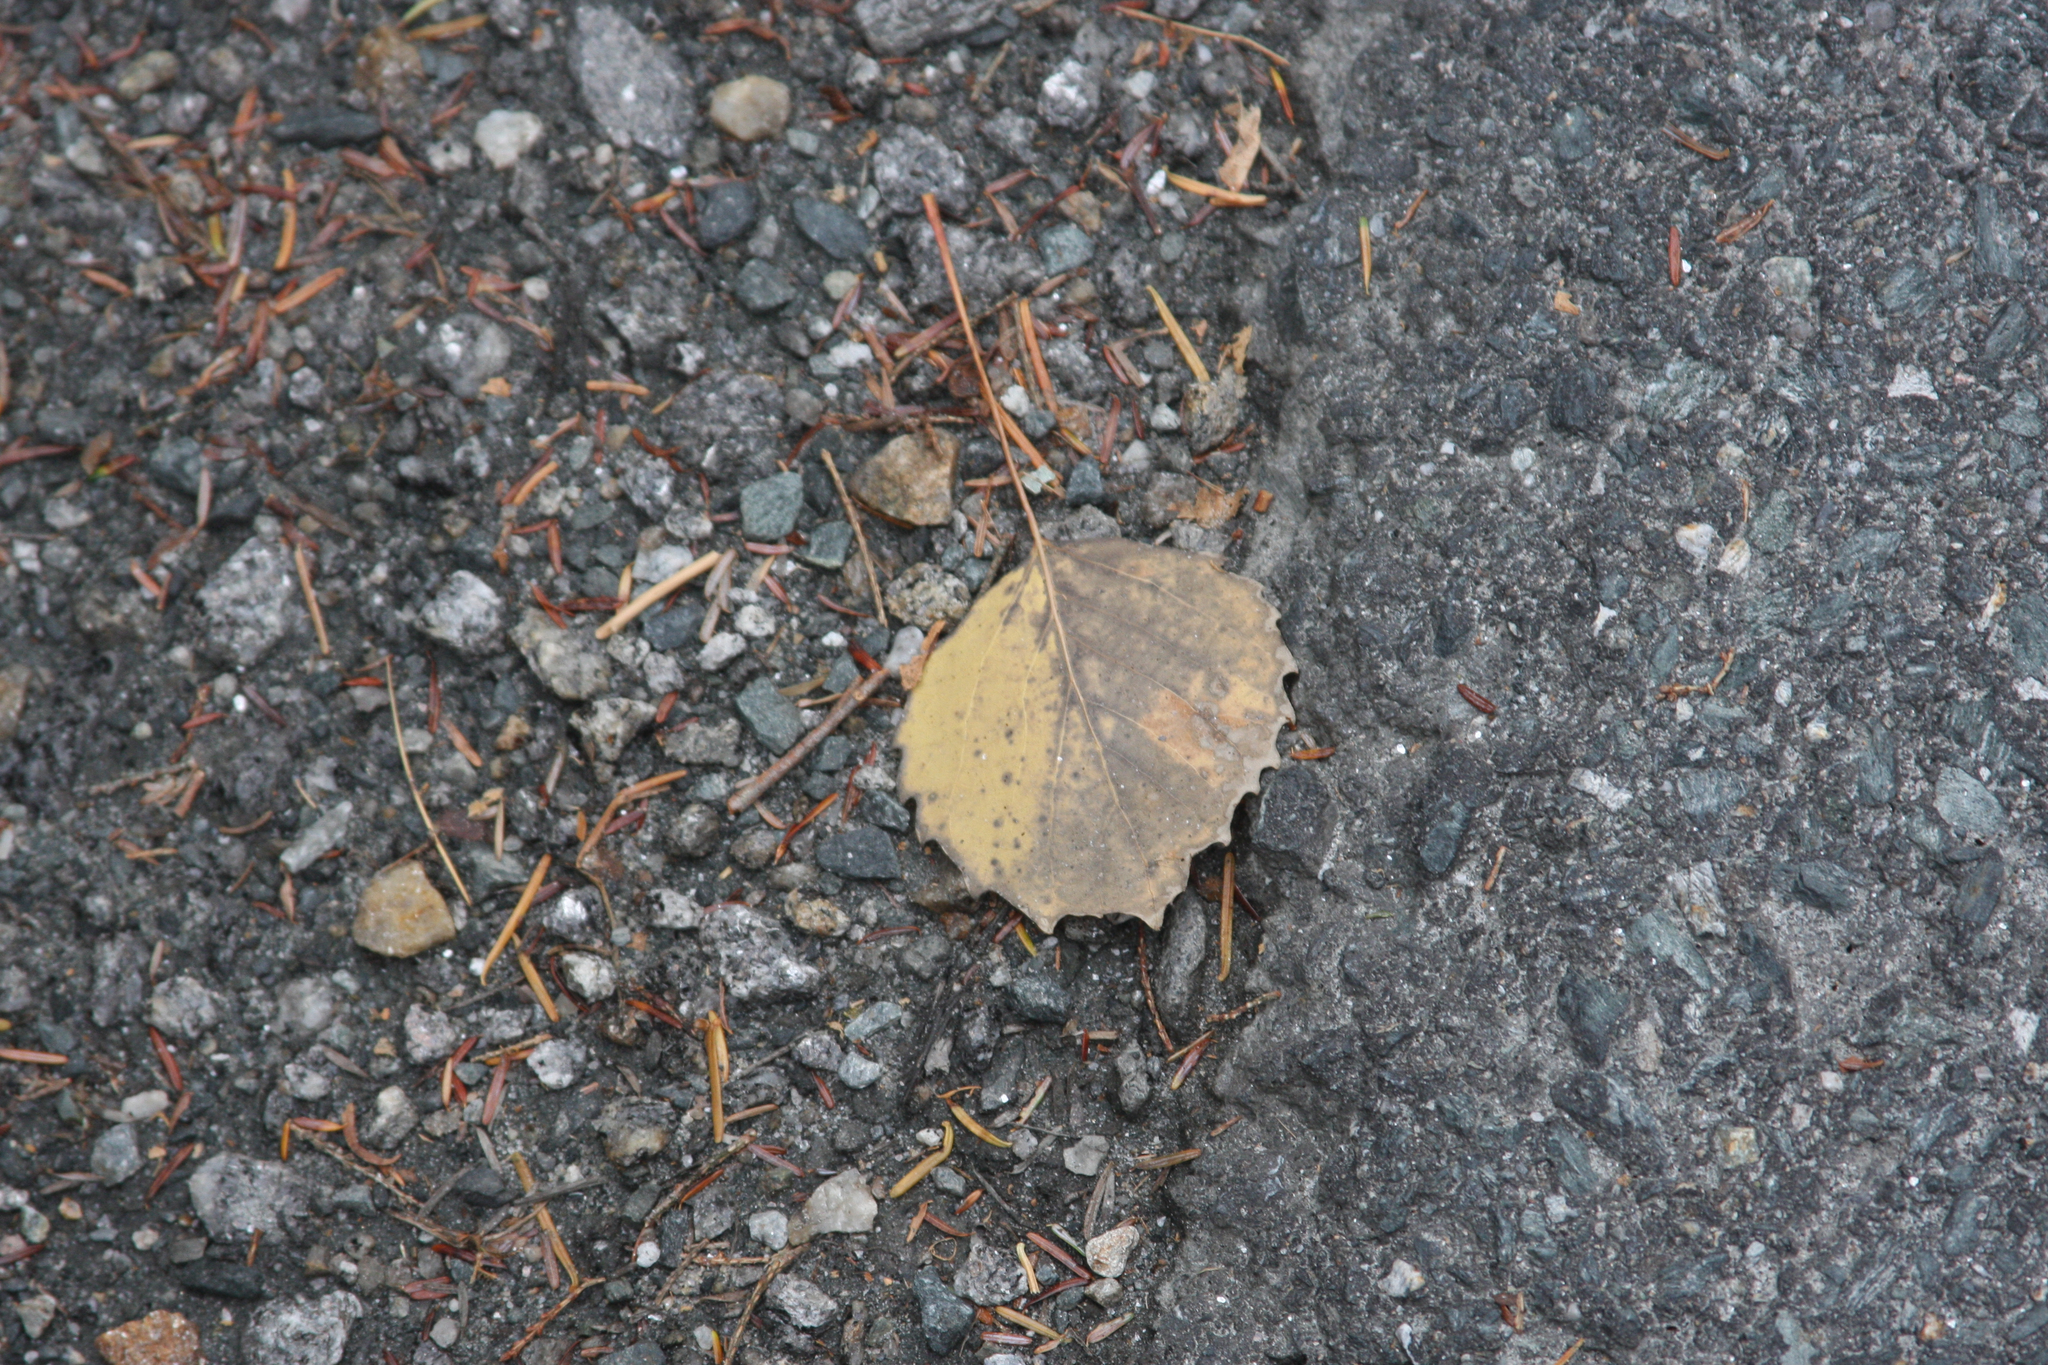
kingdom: Plantae
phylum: Tracheophyta
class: Magnoliopsida
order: Malpighiales
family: Salicaceae
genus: Populus
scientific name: Populus grandidentata
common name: Bigtooth aspen
